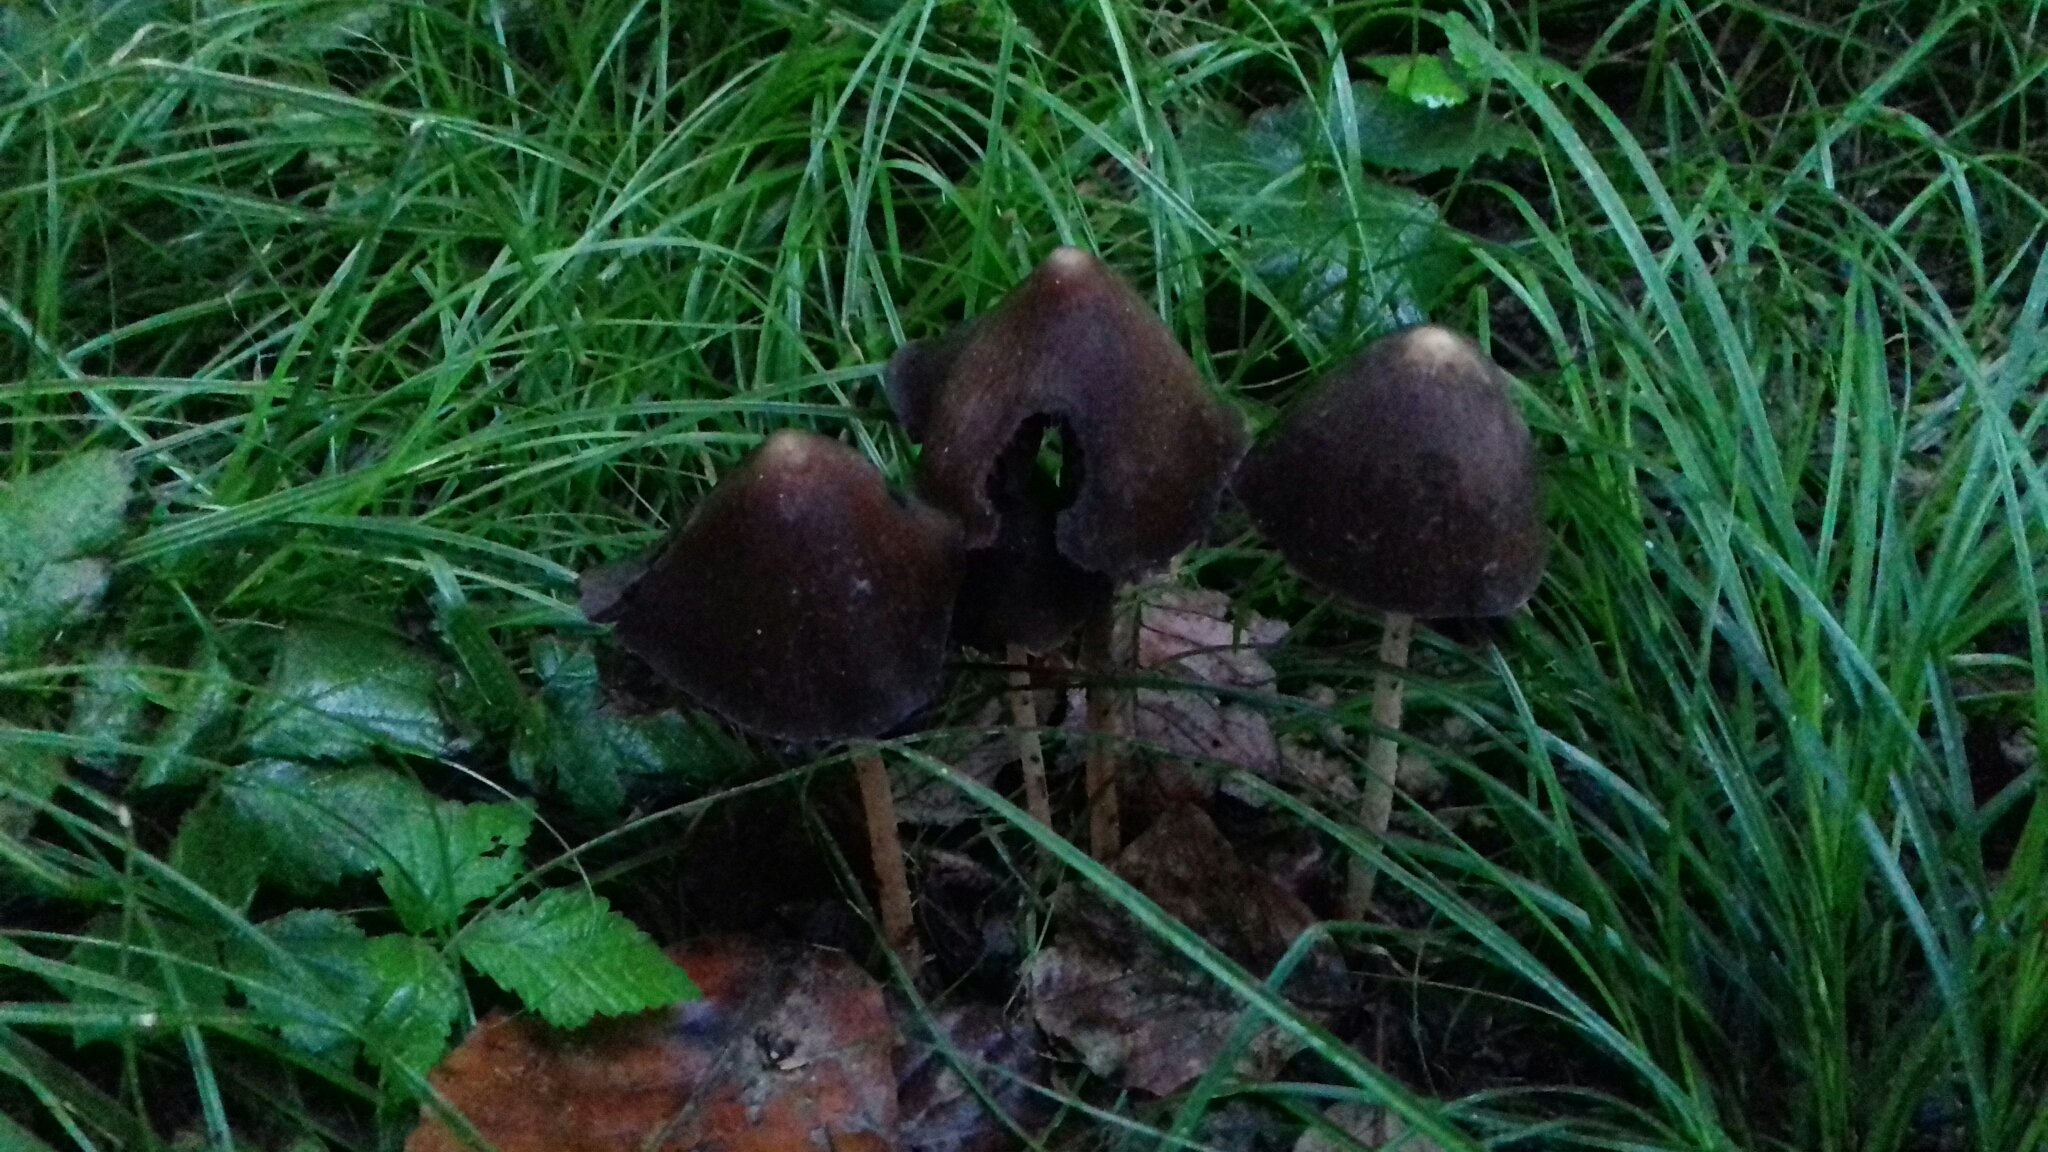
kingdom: Fungi
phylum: Basidiomycota
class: Agaricomycetes
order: Agaricales
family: Psathyrellaceae
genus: Parasola
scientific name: Parasola conopilea
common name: Conical brittlestem
